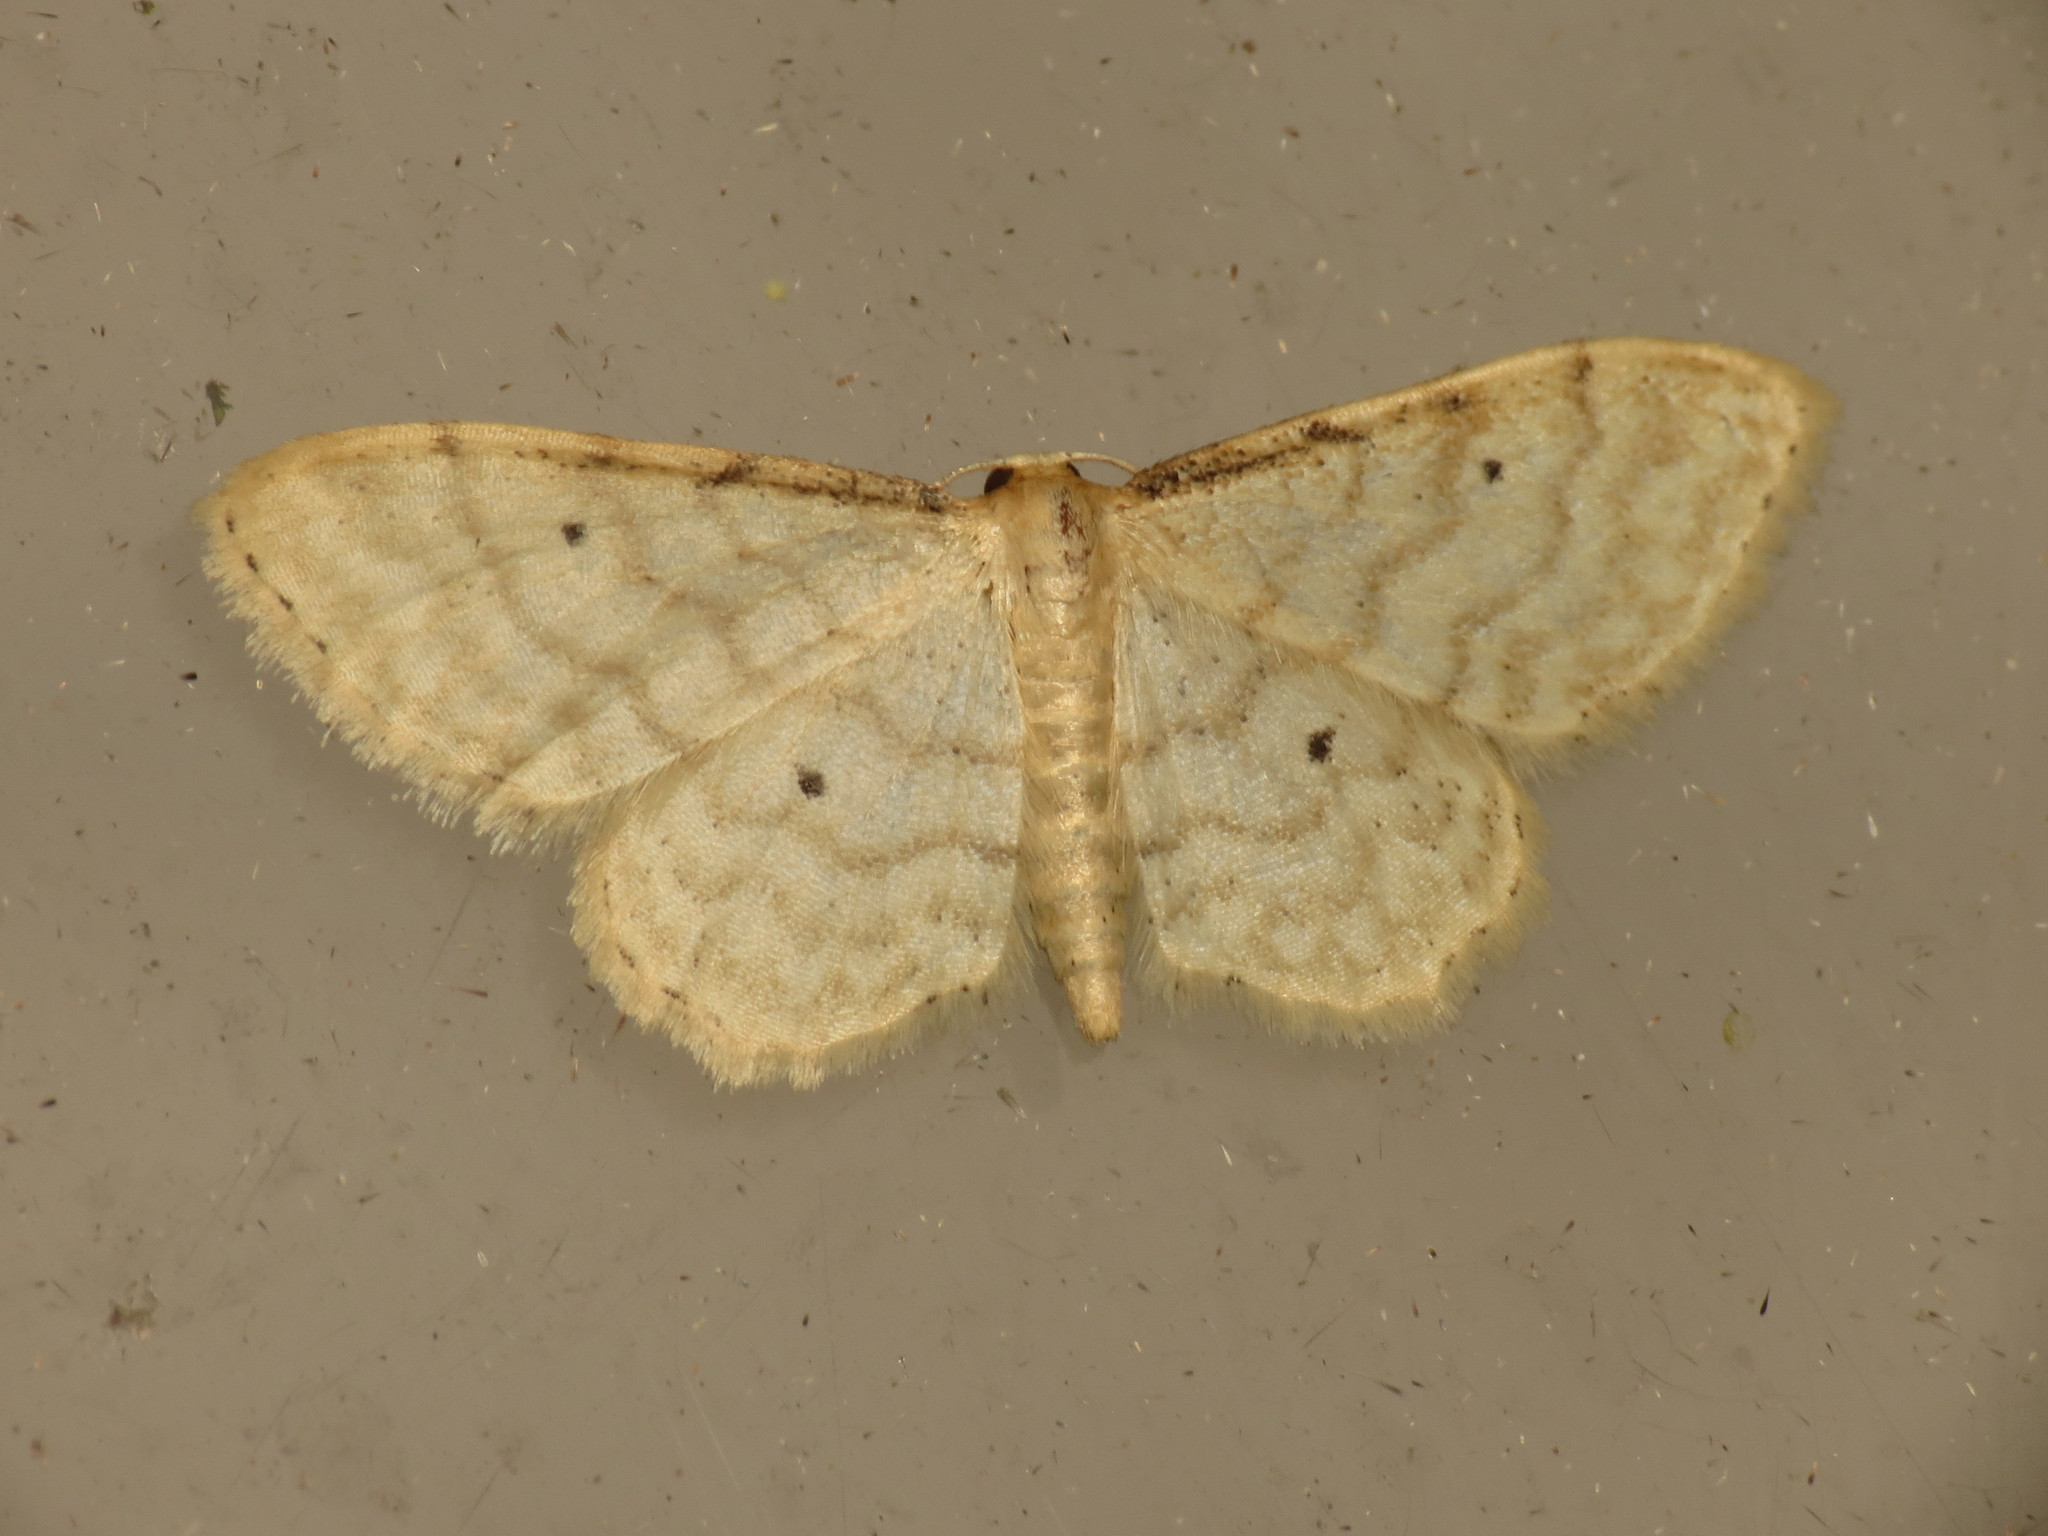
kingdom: Animalia
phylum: Arthropoda
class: Insecta
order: Lepidoptera
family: Geometridae
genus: Idaea
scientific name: Idaea fuscovenosa
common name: Dwarf cream wave
